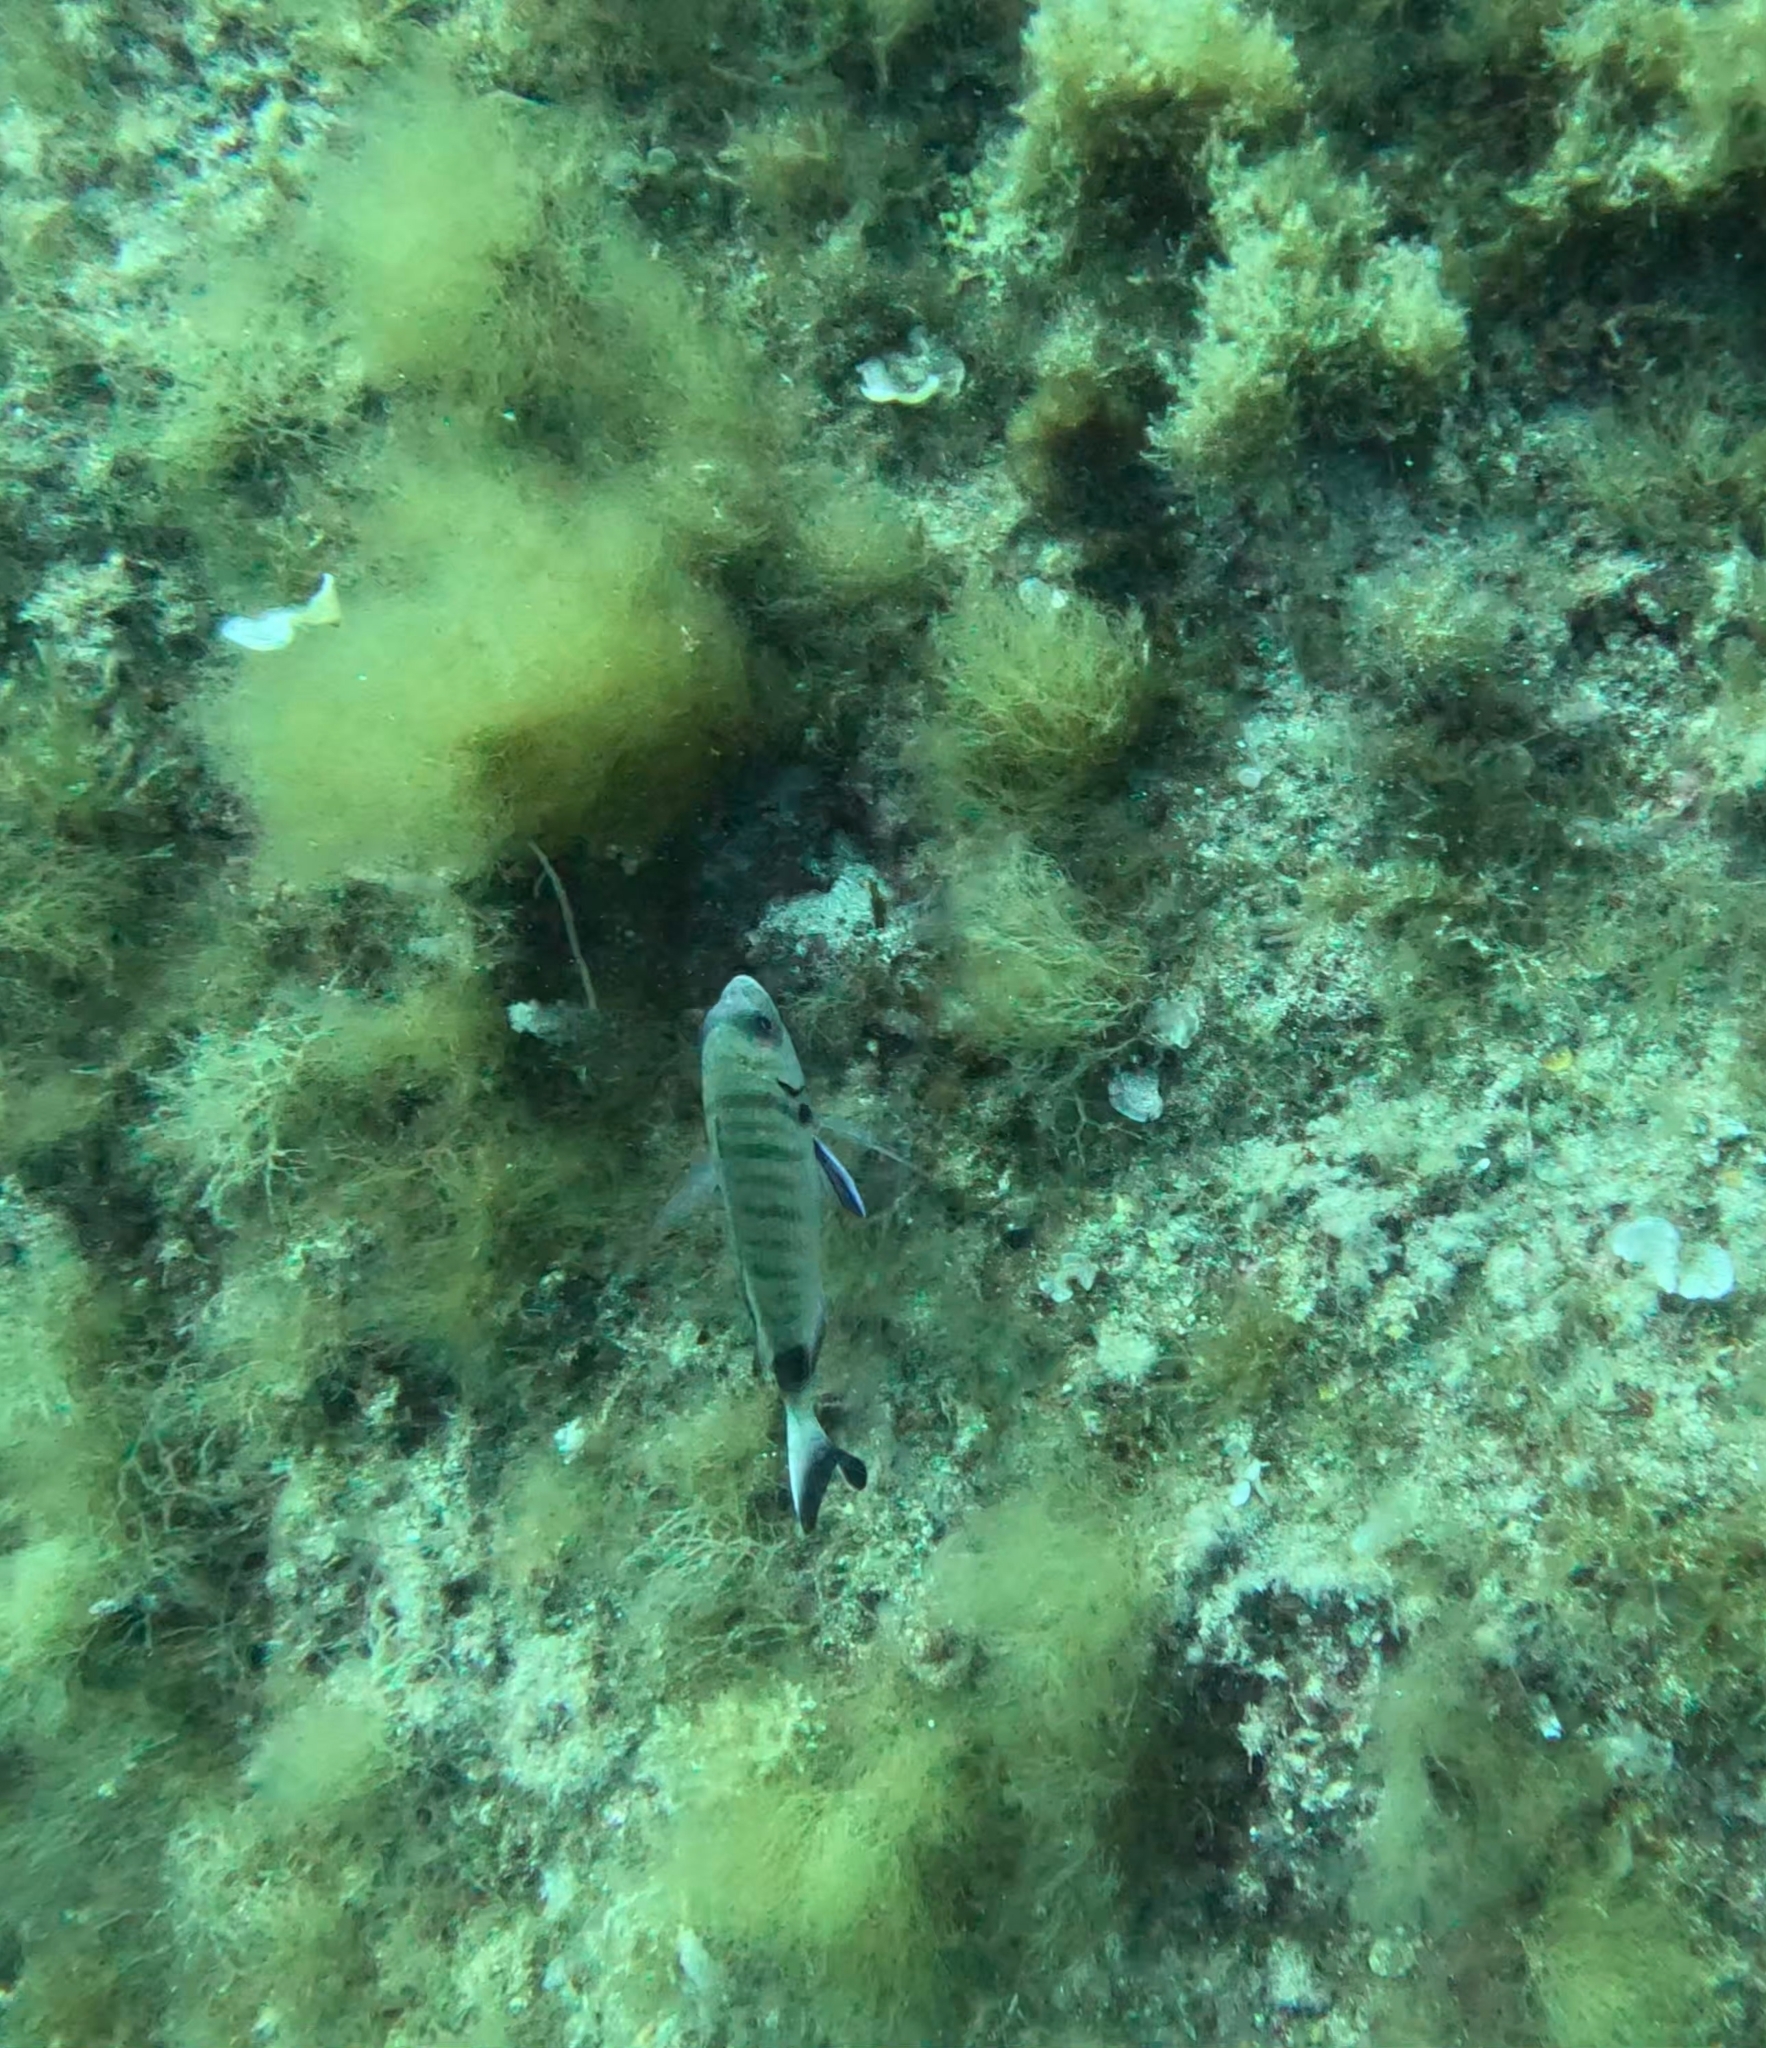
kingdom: Animalia
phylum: Chordata
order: Perciformes
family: Sparidae
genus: Diplodus
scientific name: Diplodus sargus
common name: White seabream
